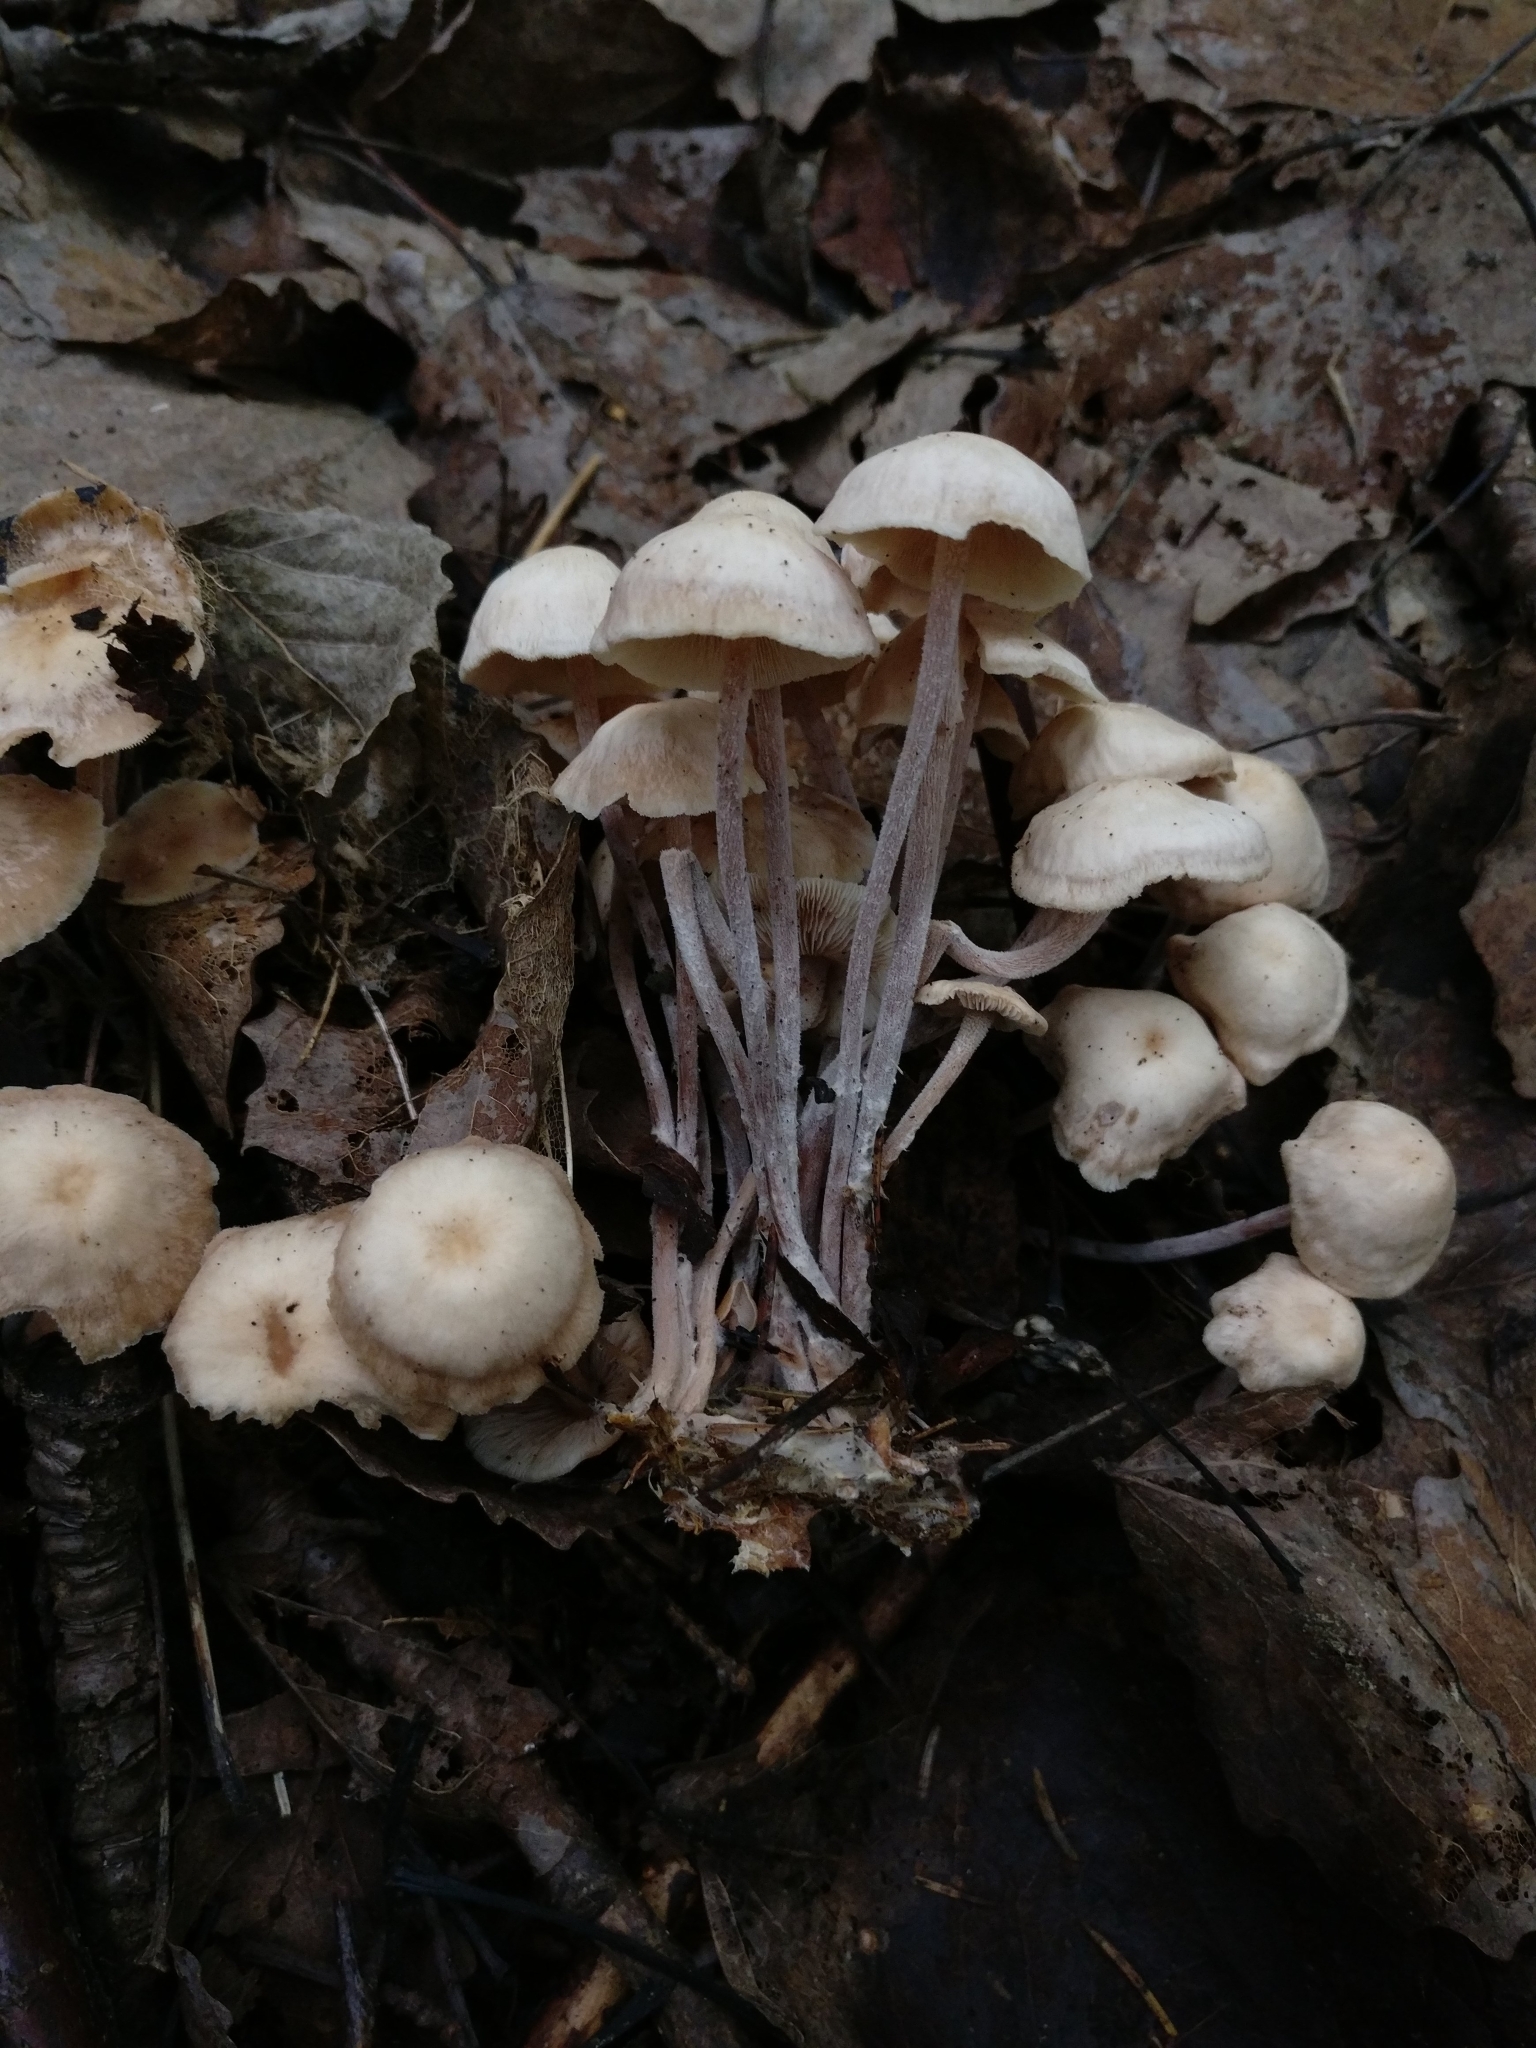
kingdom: Fungi
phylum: Basidiomycota
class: Agaricomycetes
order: Agaricales
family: Omphalotaceae
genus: Collybiopsis
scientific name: Collybiopsis confluens
